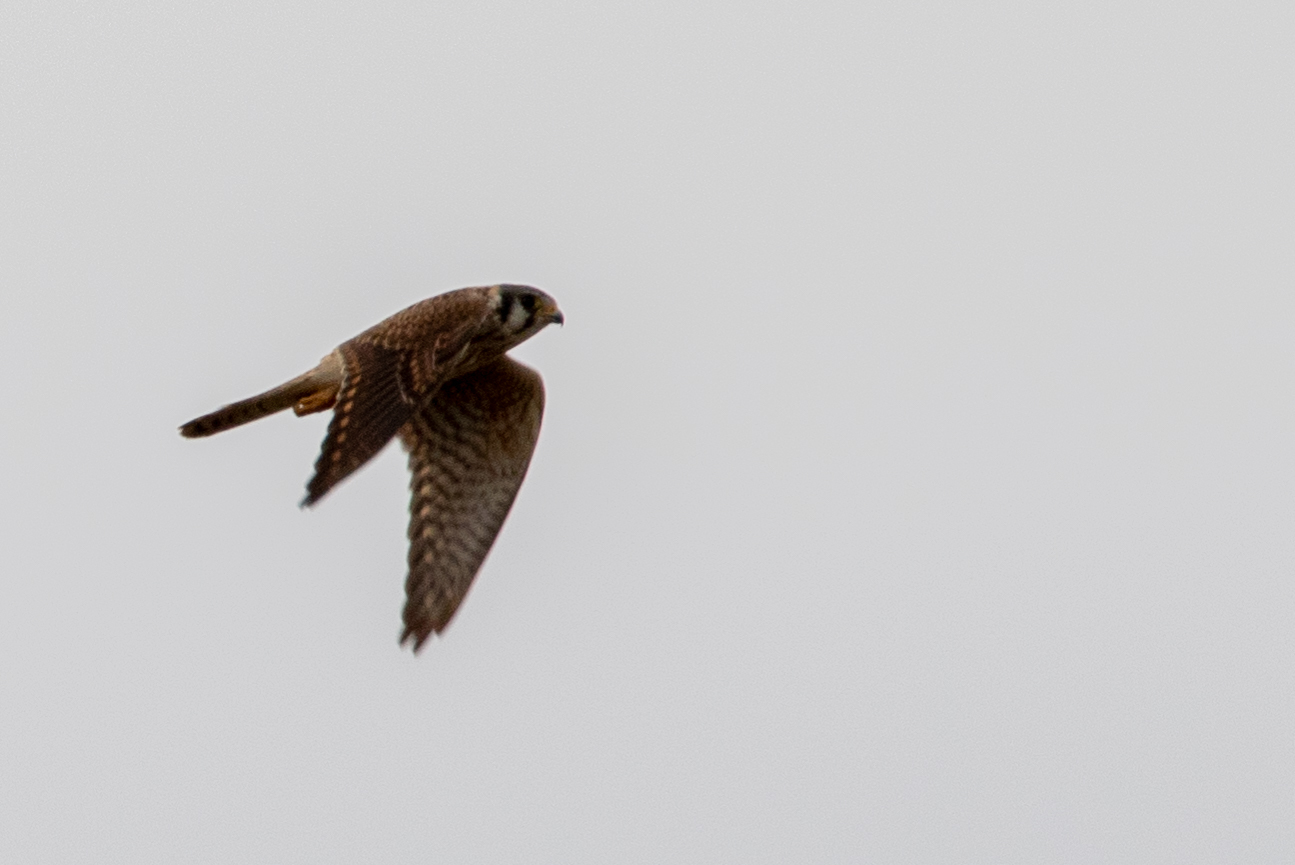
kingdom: Animalia
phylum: Chordata
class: Aves
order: Falconiformes
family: Falconidae
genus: Falco
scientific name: Falco sparverius
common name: American kestrel
